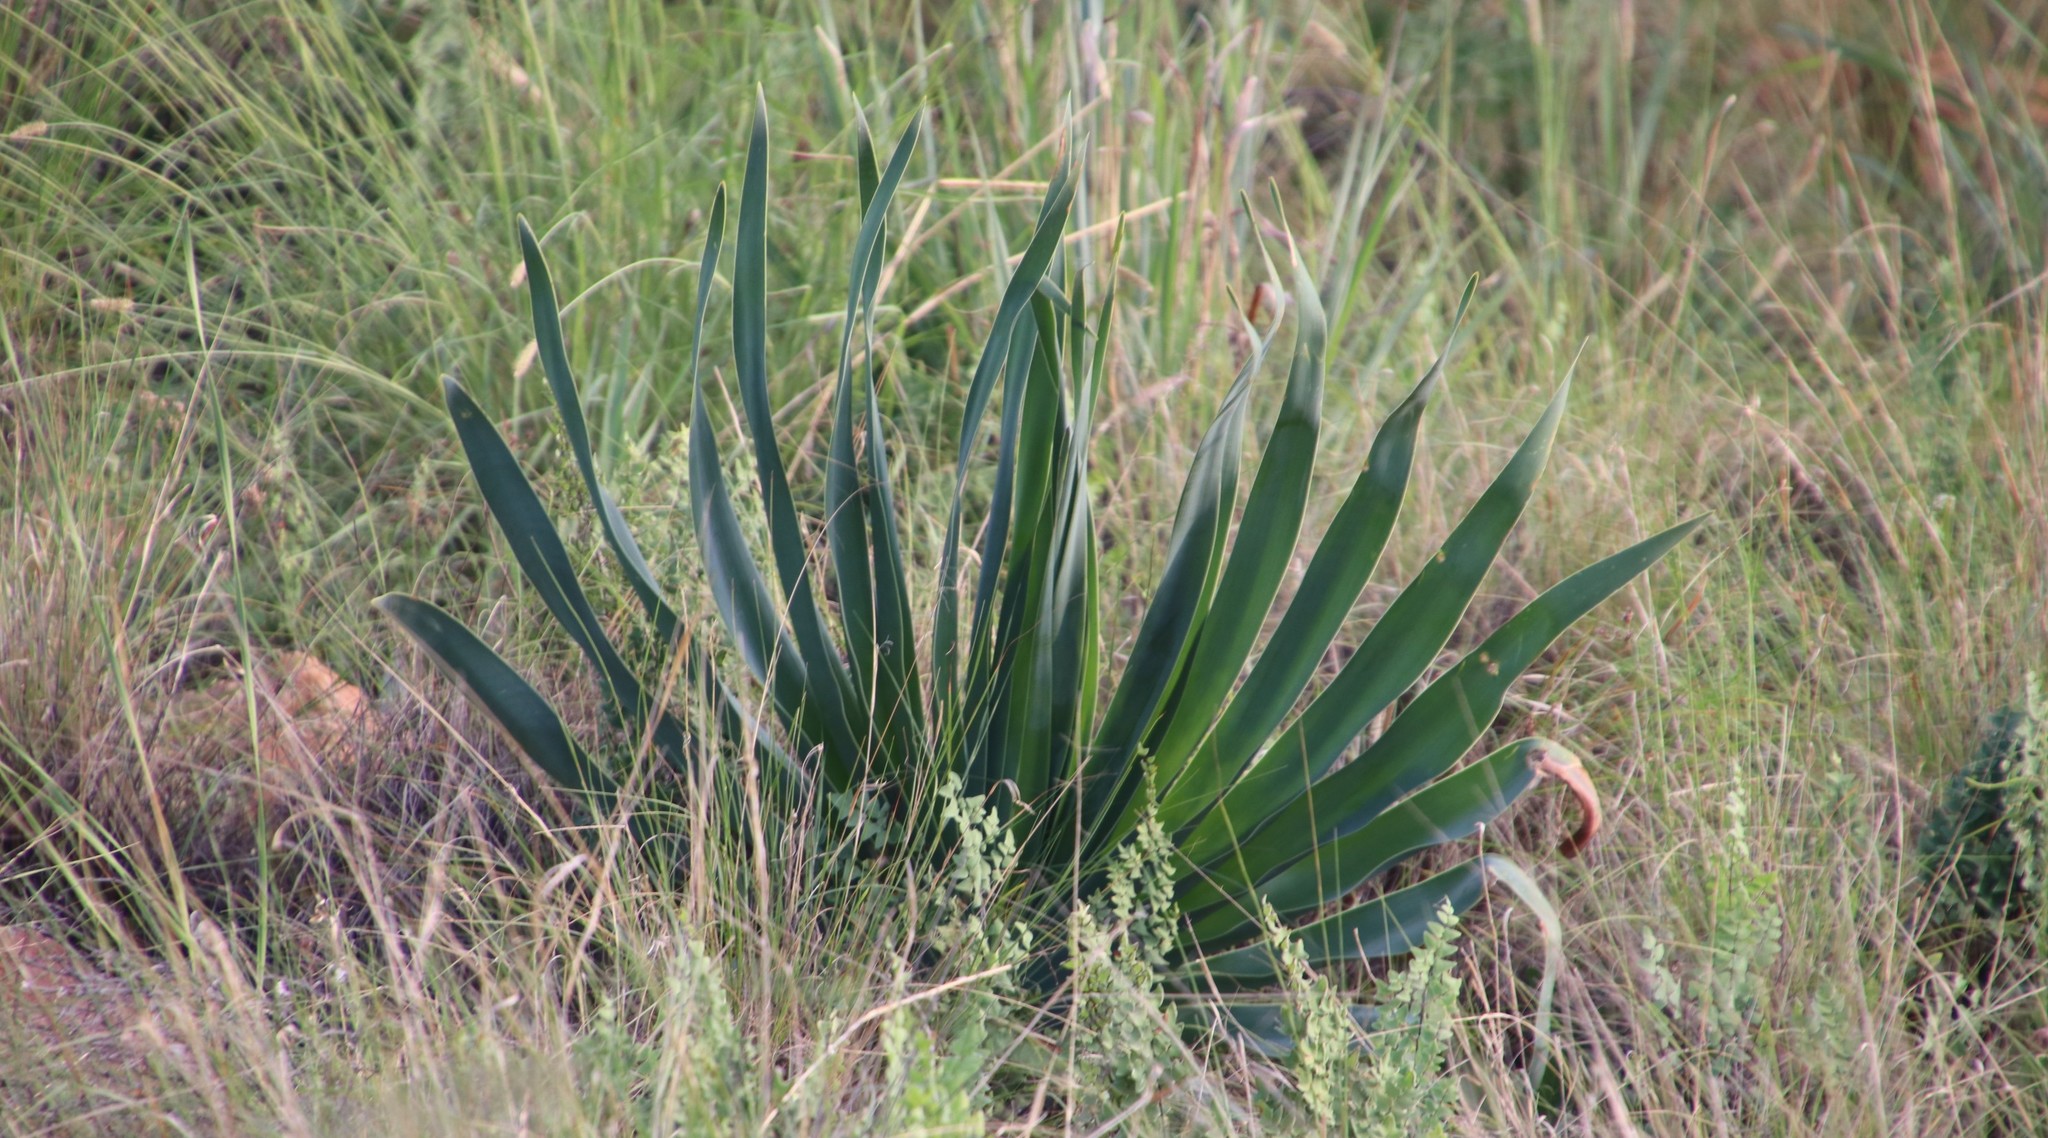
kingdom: Plantae
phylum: Tracheophyta
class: Liliopsida
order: Asparagales
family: Amaryllidaceae
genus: Boophone
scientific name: Boophone disticha
